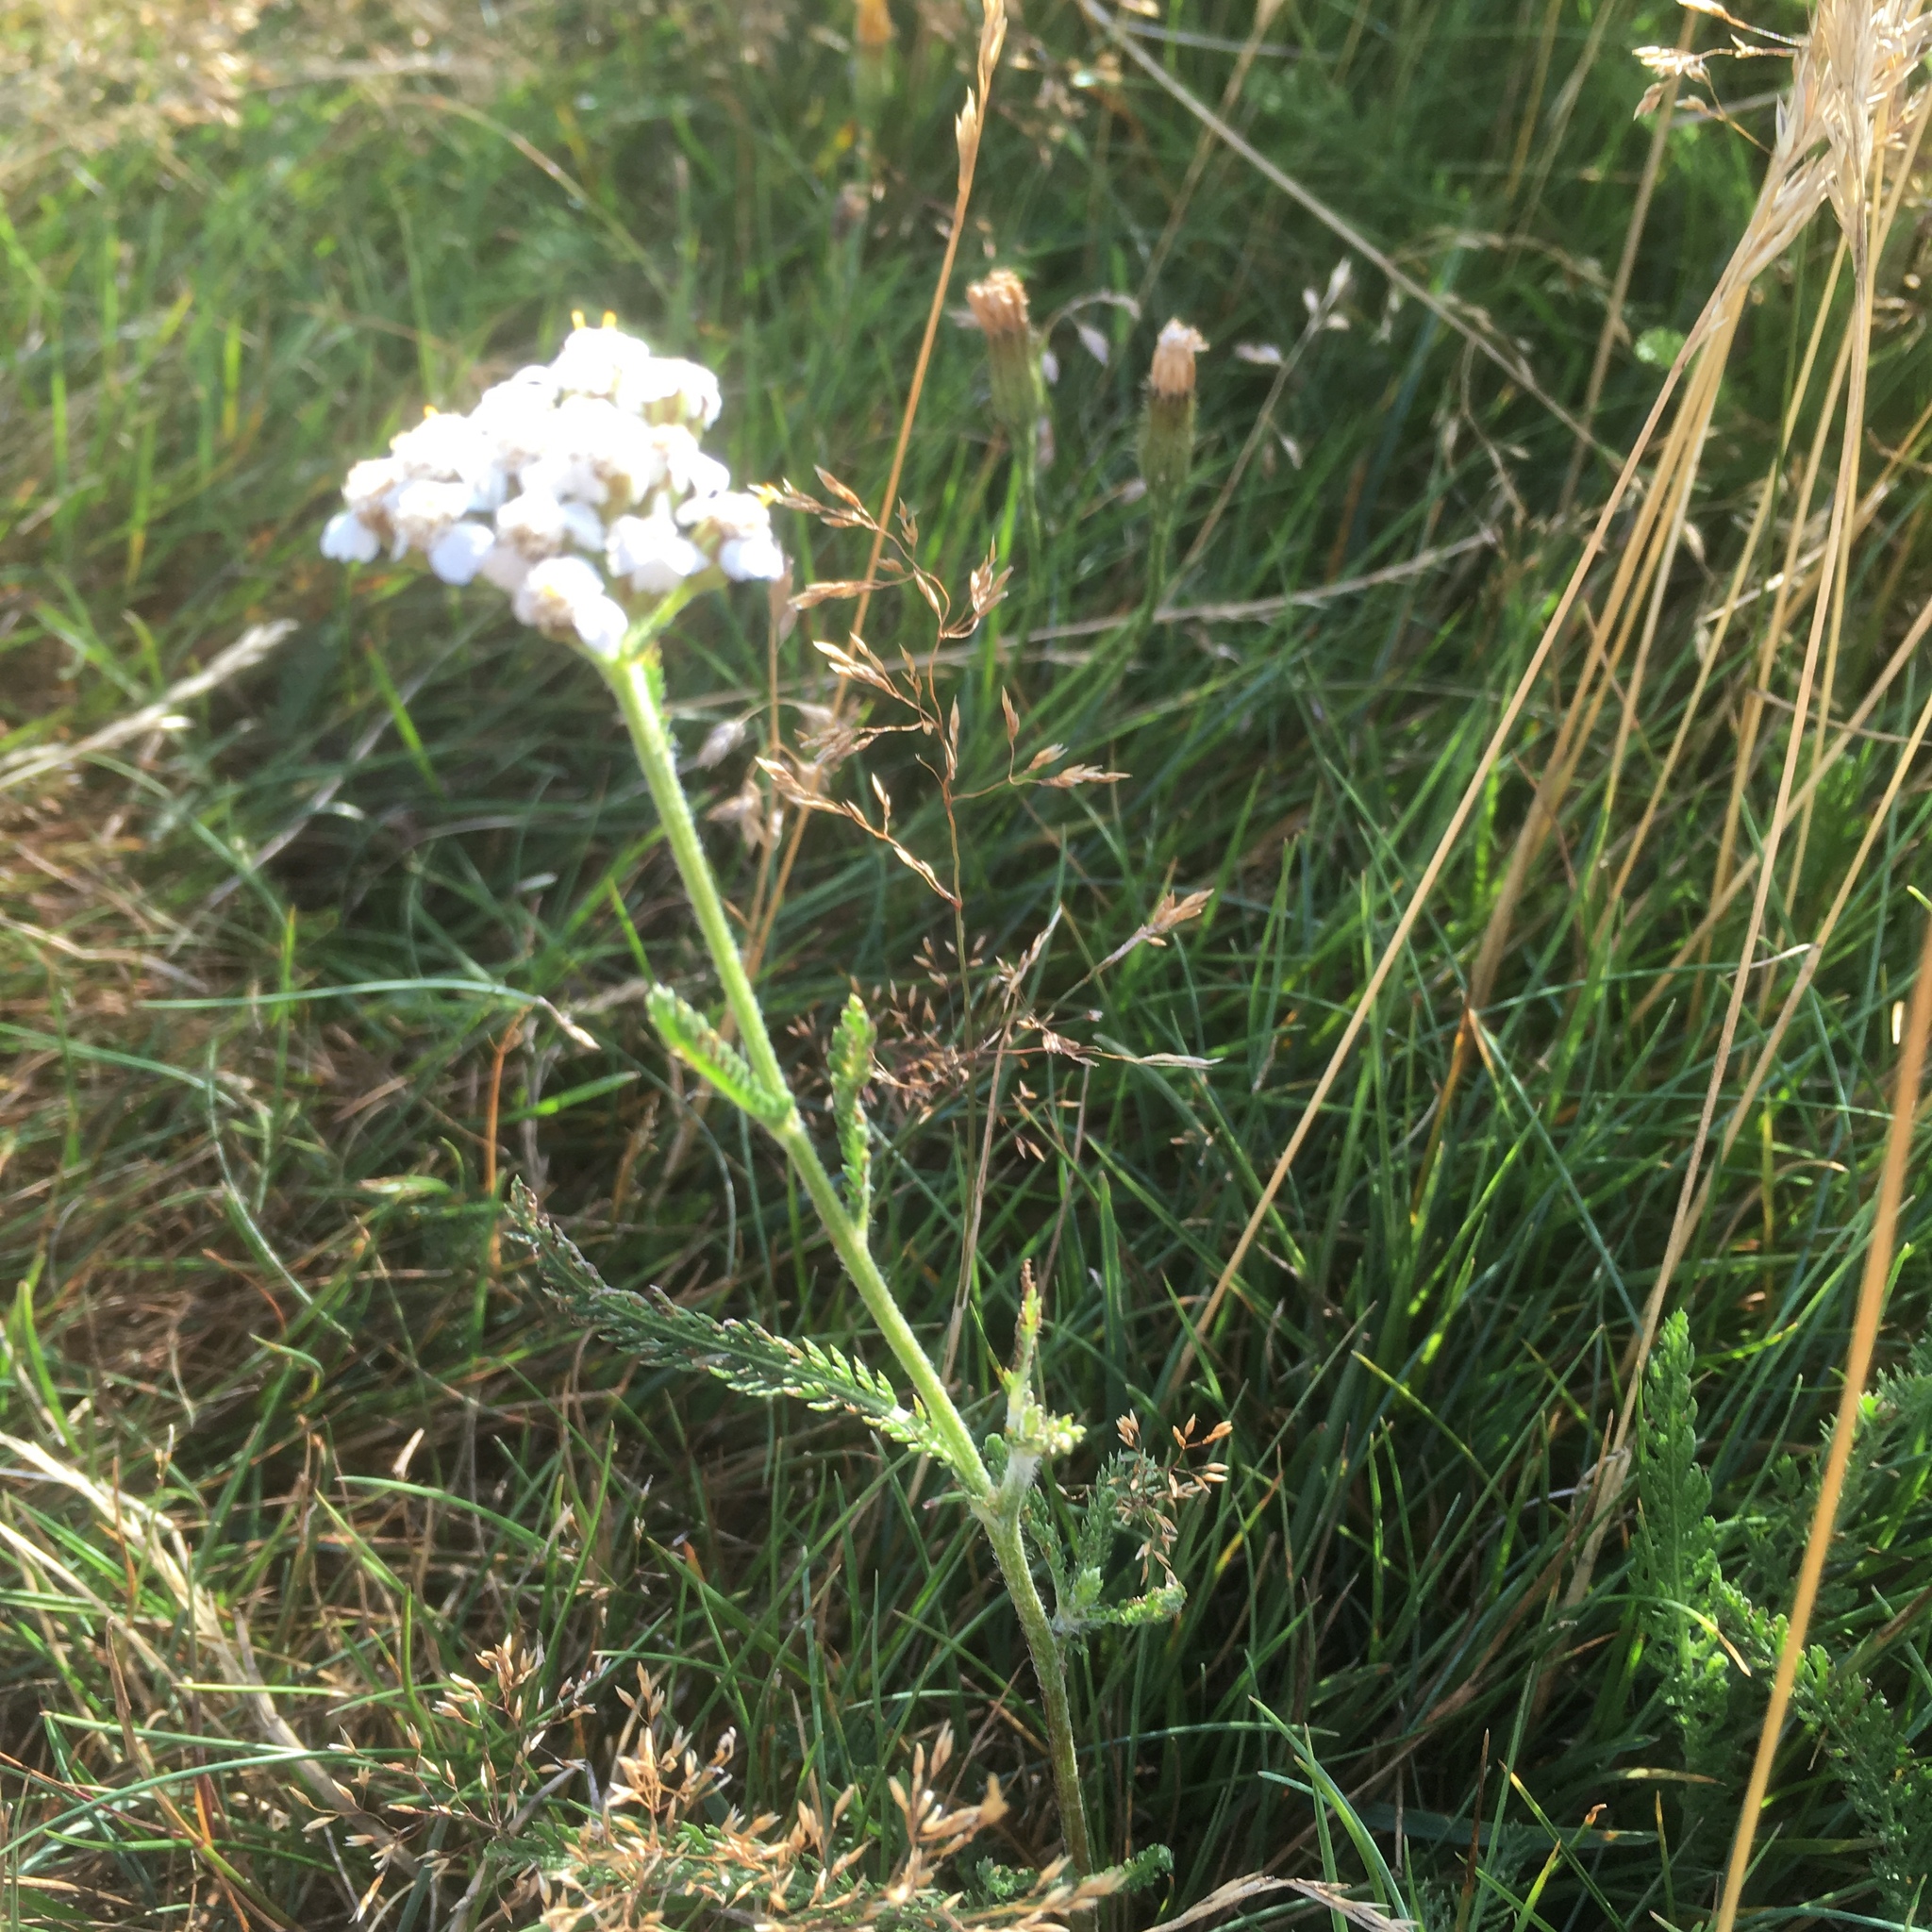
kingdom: Plantae
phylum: Tracheophyta
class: Magnoliopsida
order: Asterales
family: Asteraceae
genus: Achillea
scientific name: Achillea millefolium
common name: Yarrow
